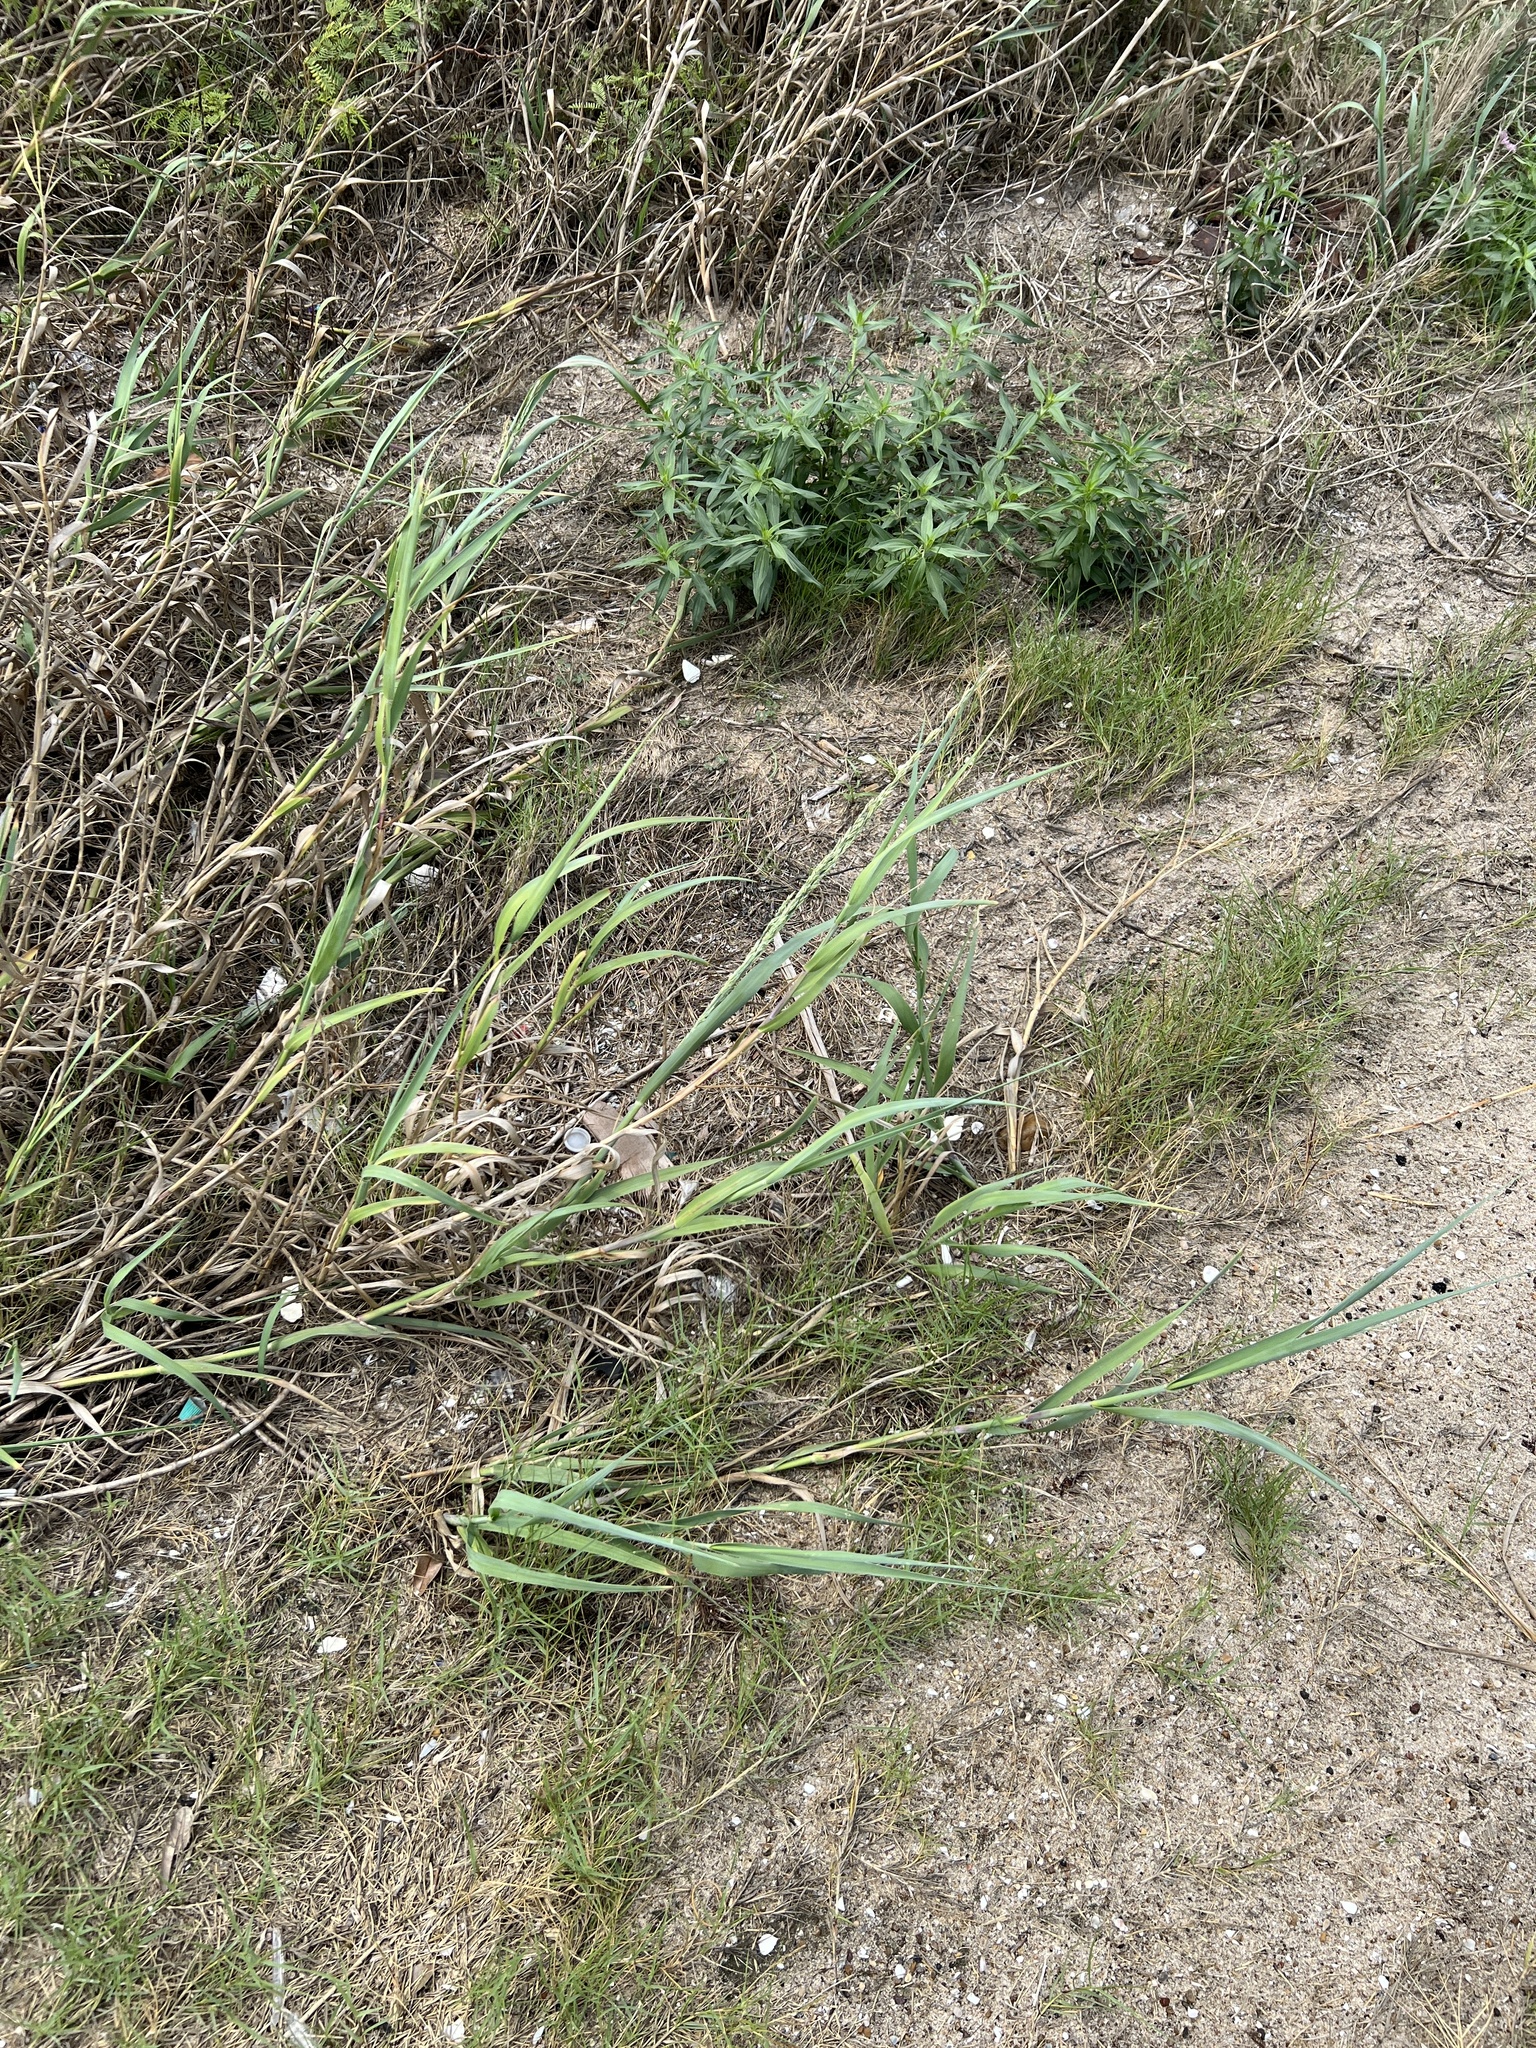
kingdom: Plantae
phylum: Tracheophyta
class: Liliopsida
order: Poales
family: Poaceae
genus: Panicum
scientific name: Panicum amarum
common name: Bitter panicum
